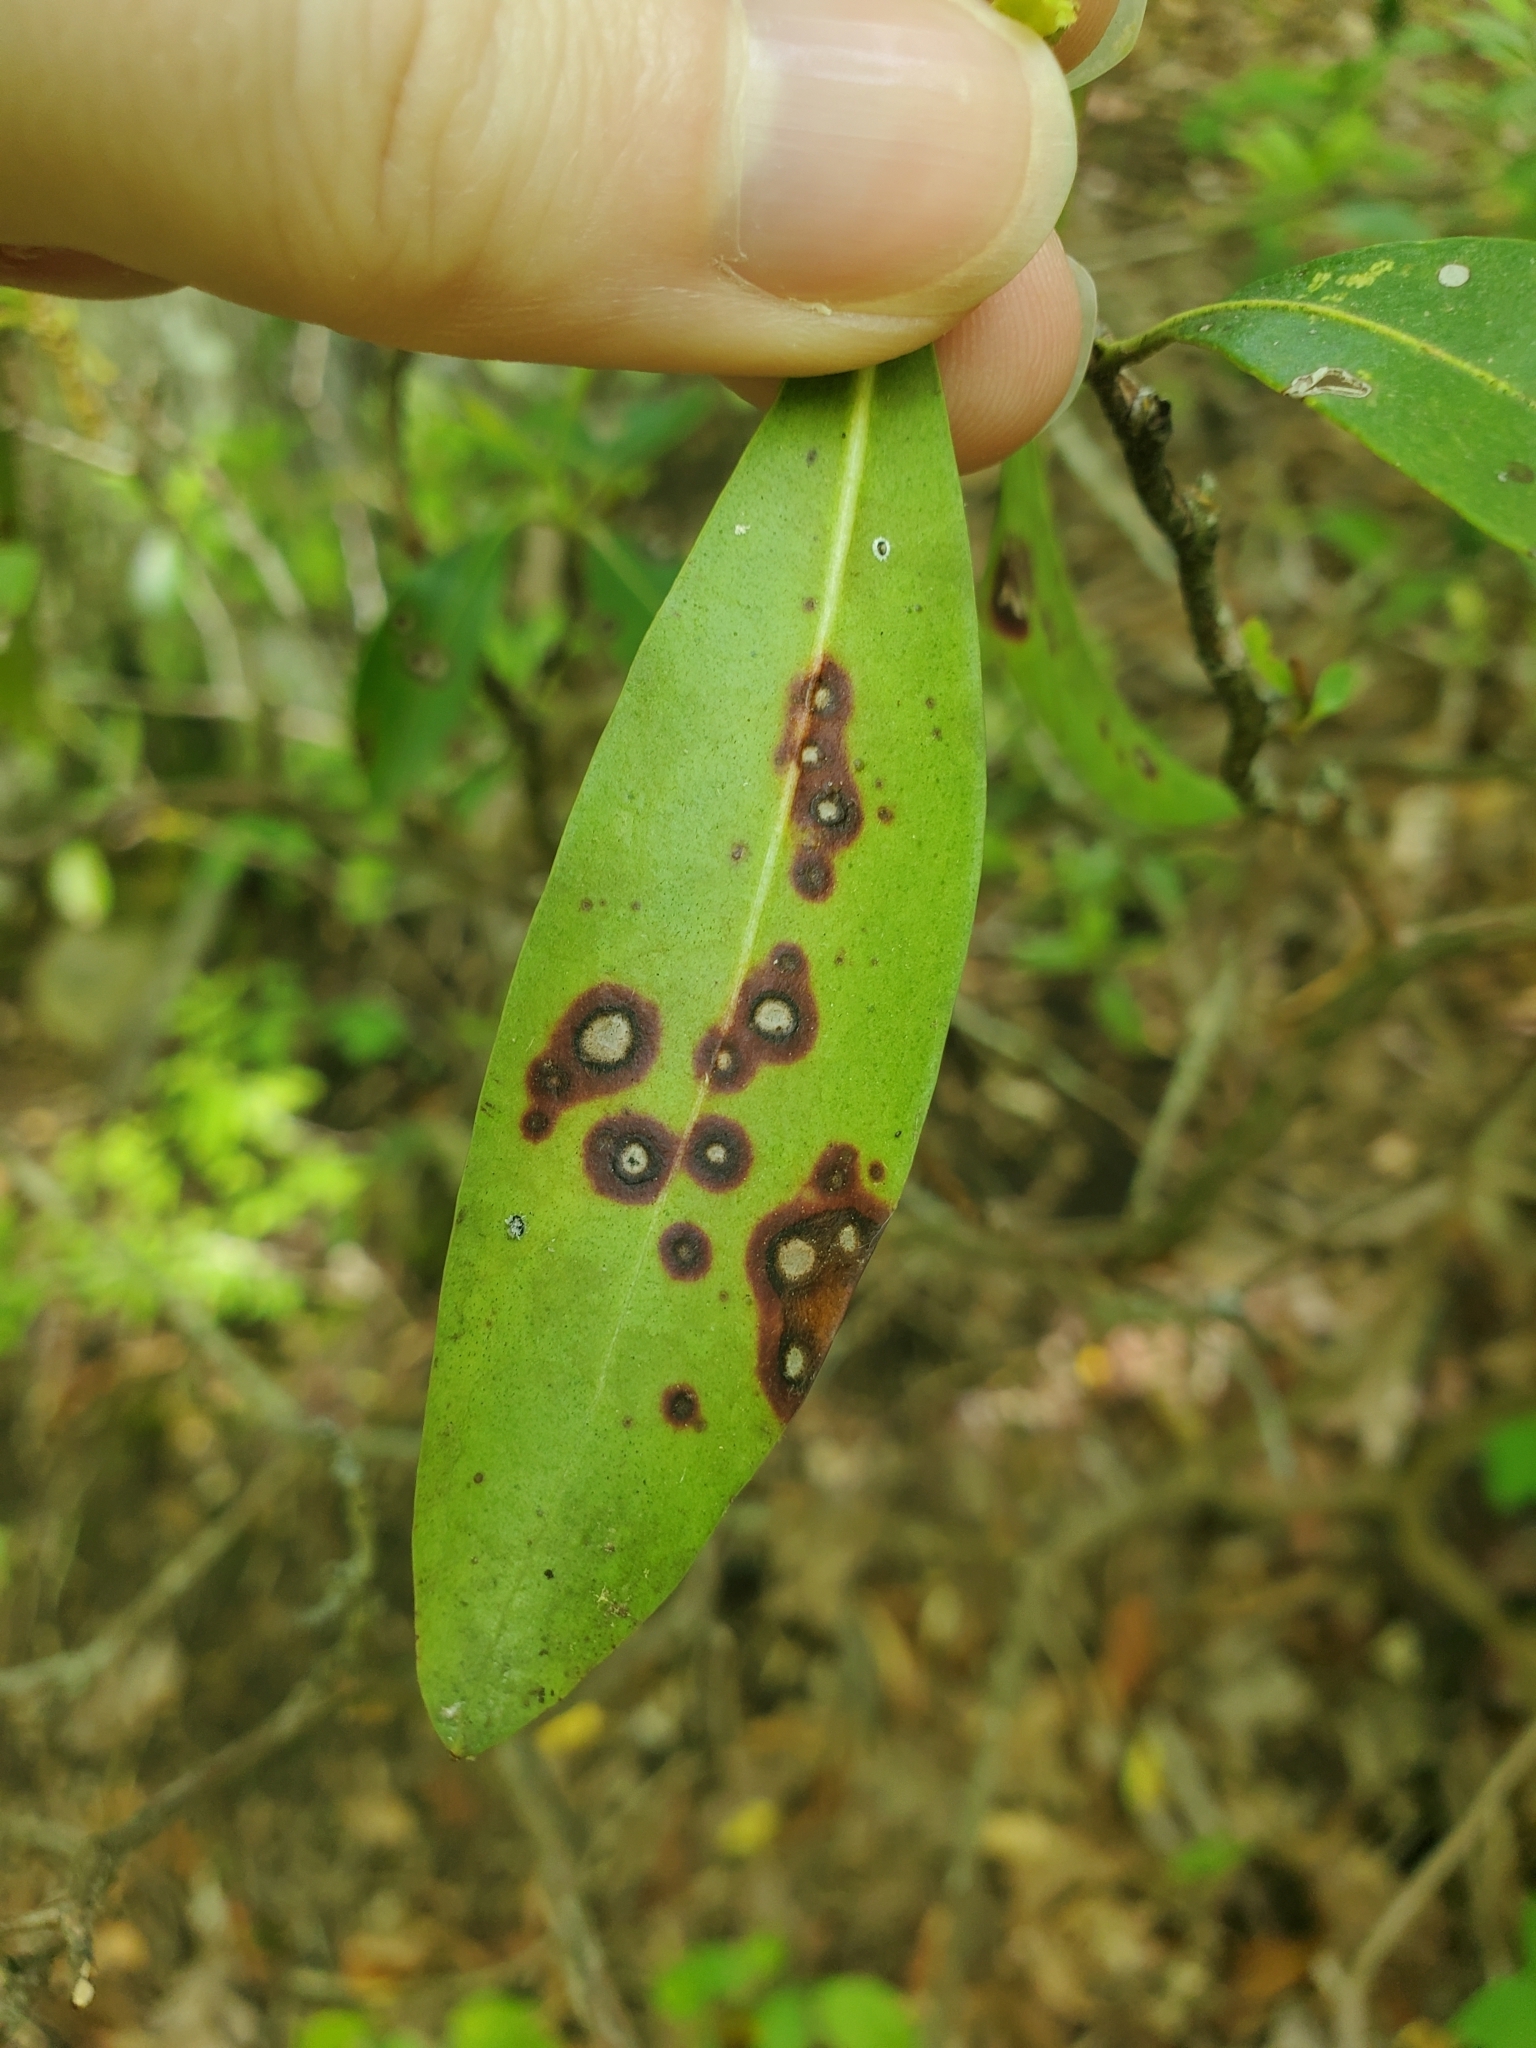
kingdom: Fungi
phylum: Ascomycota
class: Dothideomycetes
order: Mycosphaerellales
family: Mycosphaerellaceae
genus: Mycosphaerella
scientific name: Mycosphaerella colorata
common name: Mountain laurel leaf spot
